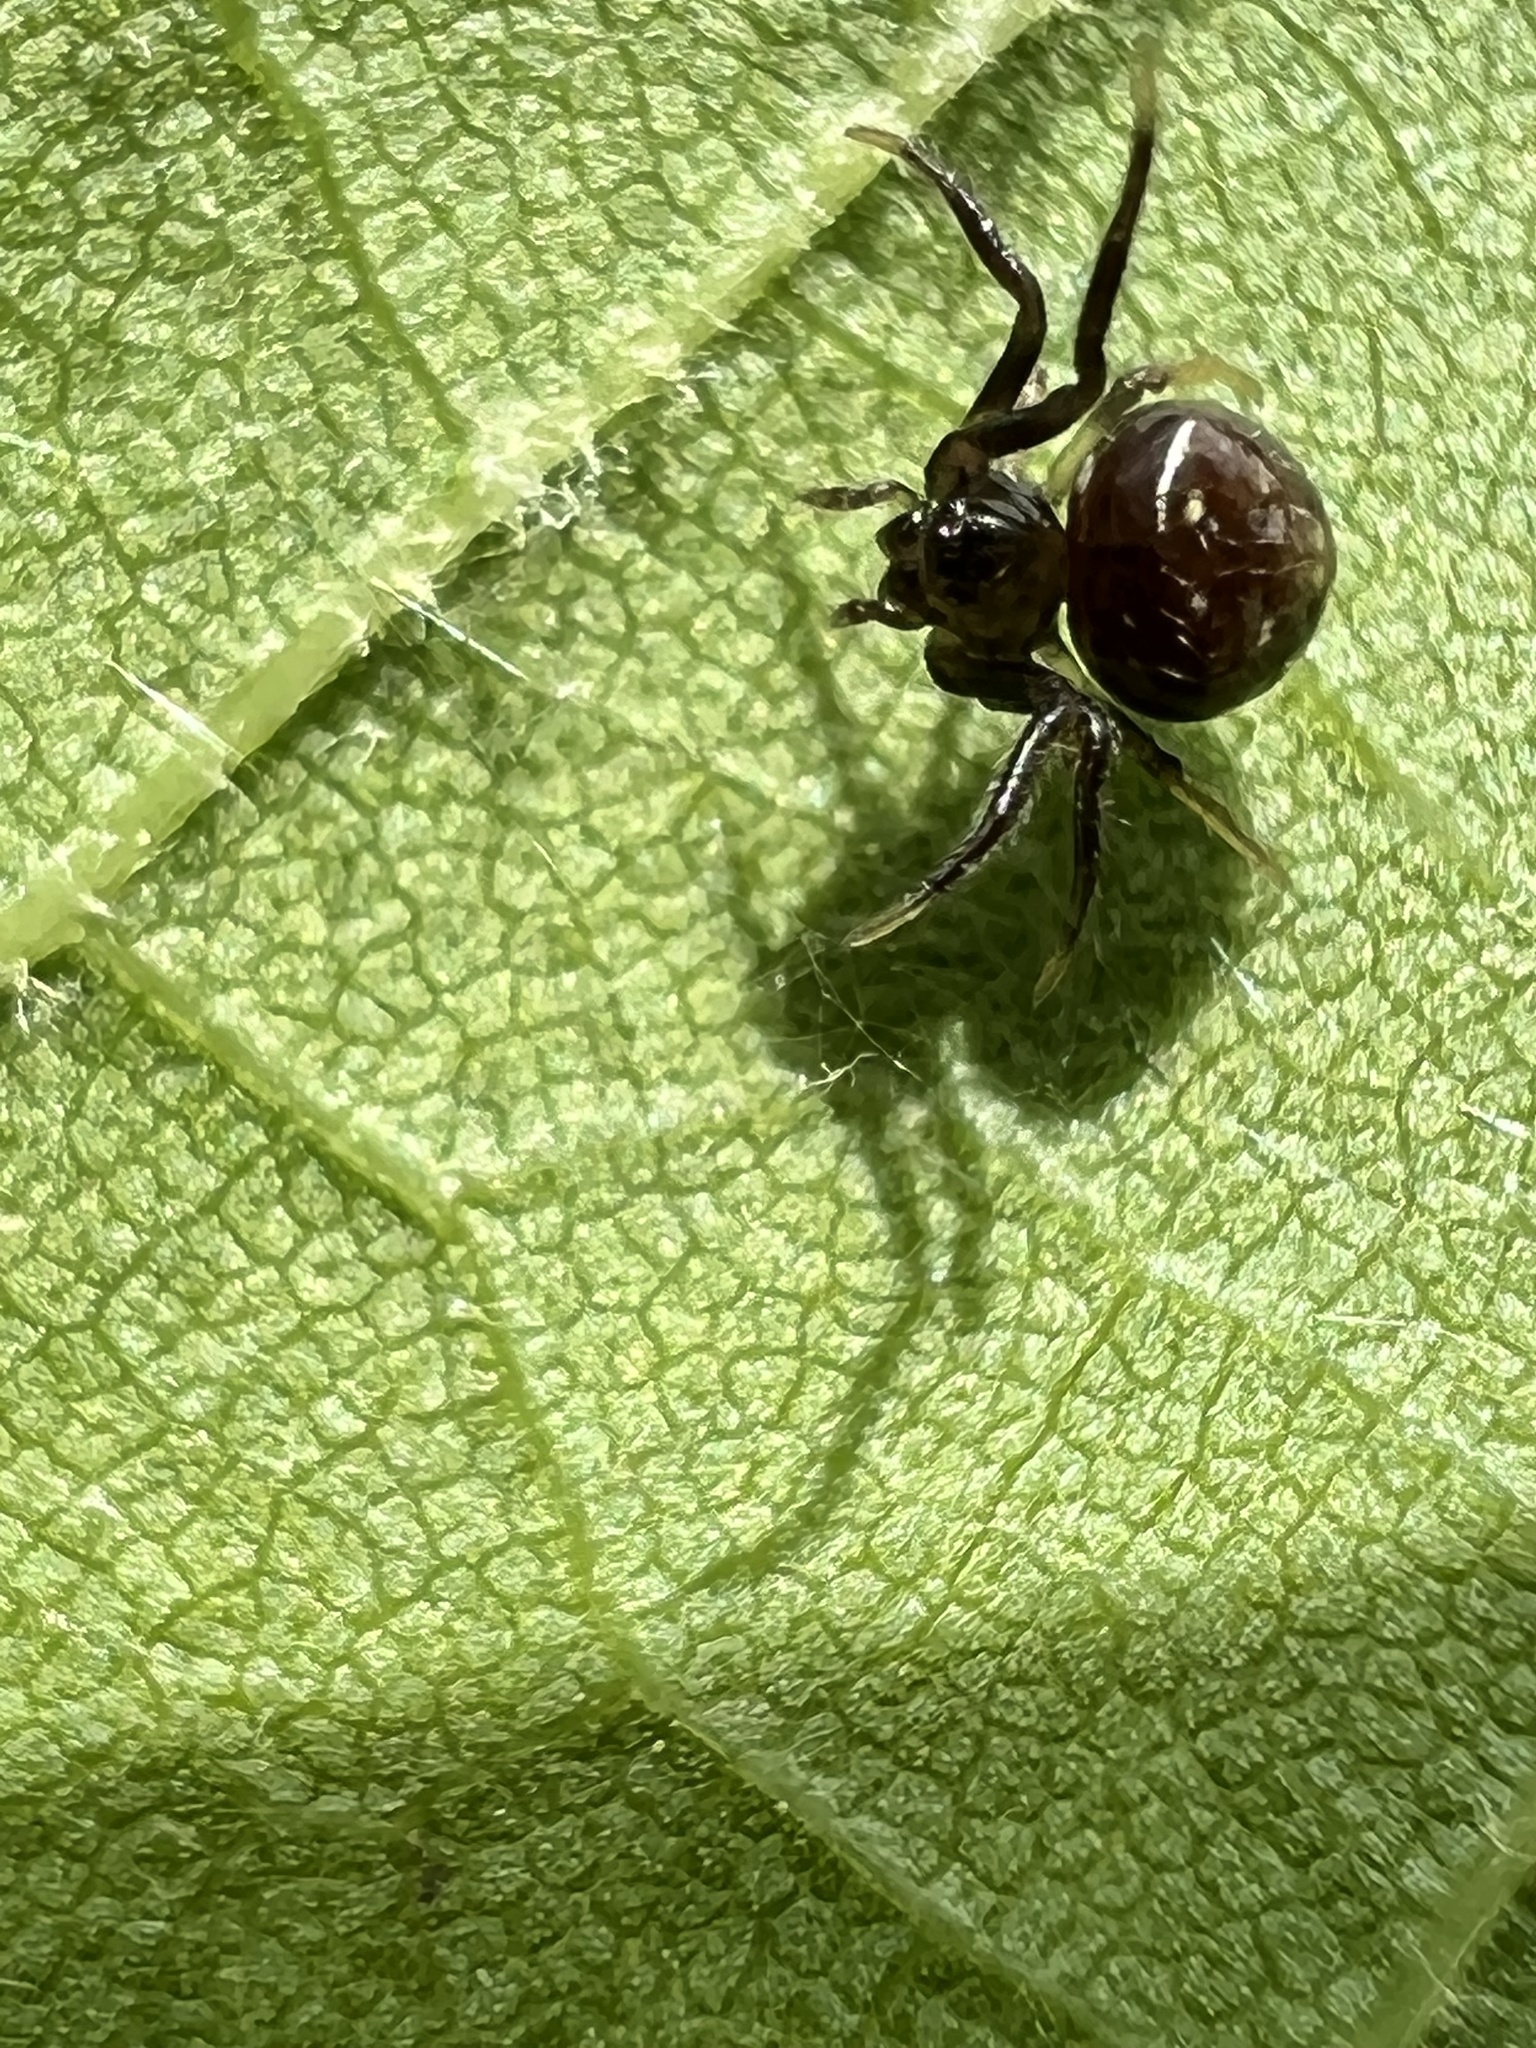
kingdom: Animalia
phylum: Arthropoda
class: Arachnida
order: Araneae
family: Araneidae
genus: Verrucosa
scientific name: Verrucosa arenata
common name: Orb weavers
